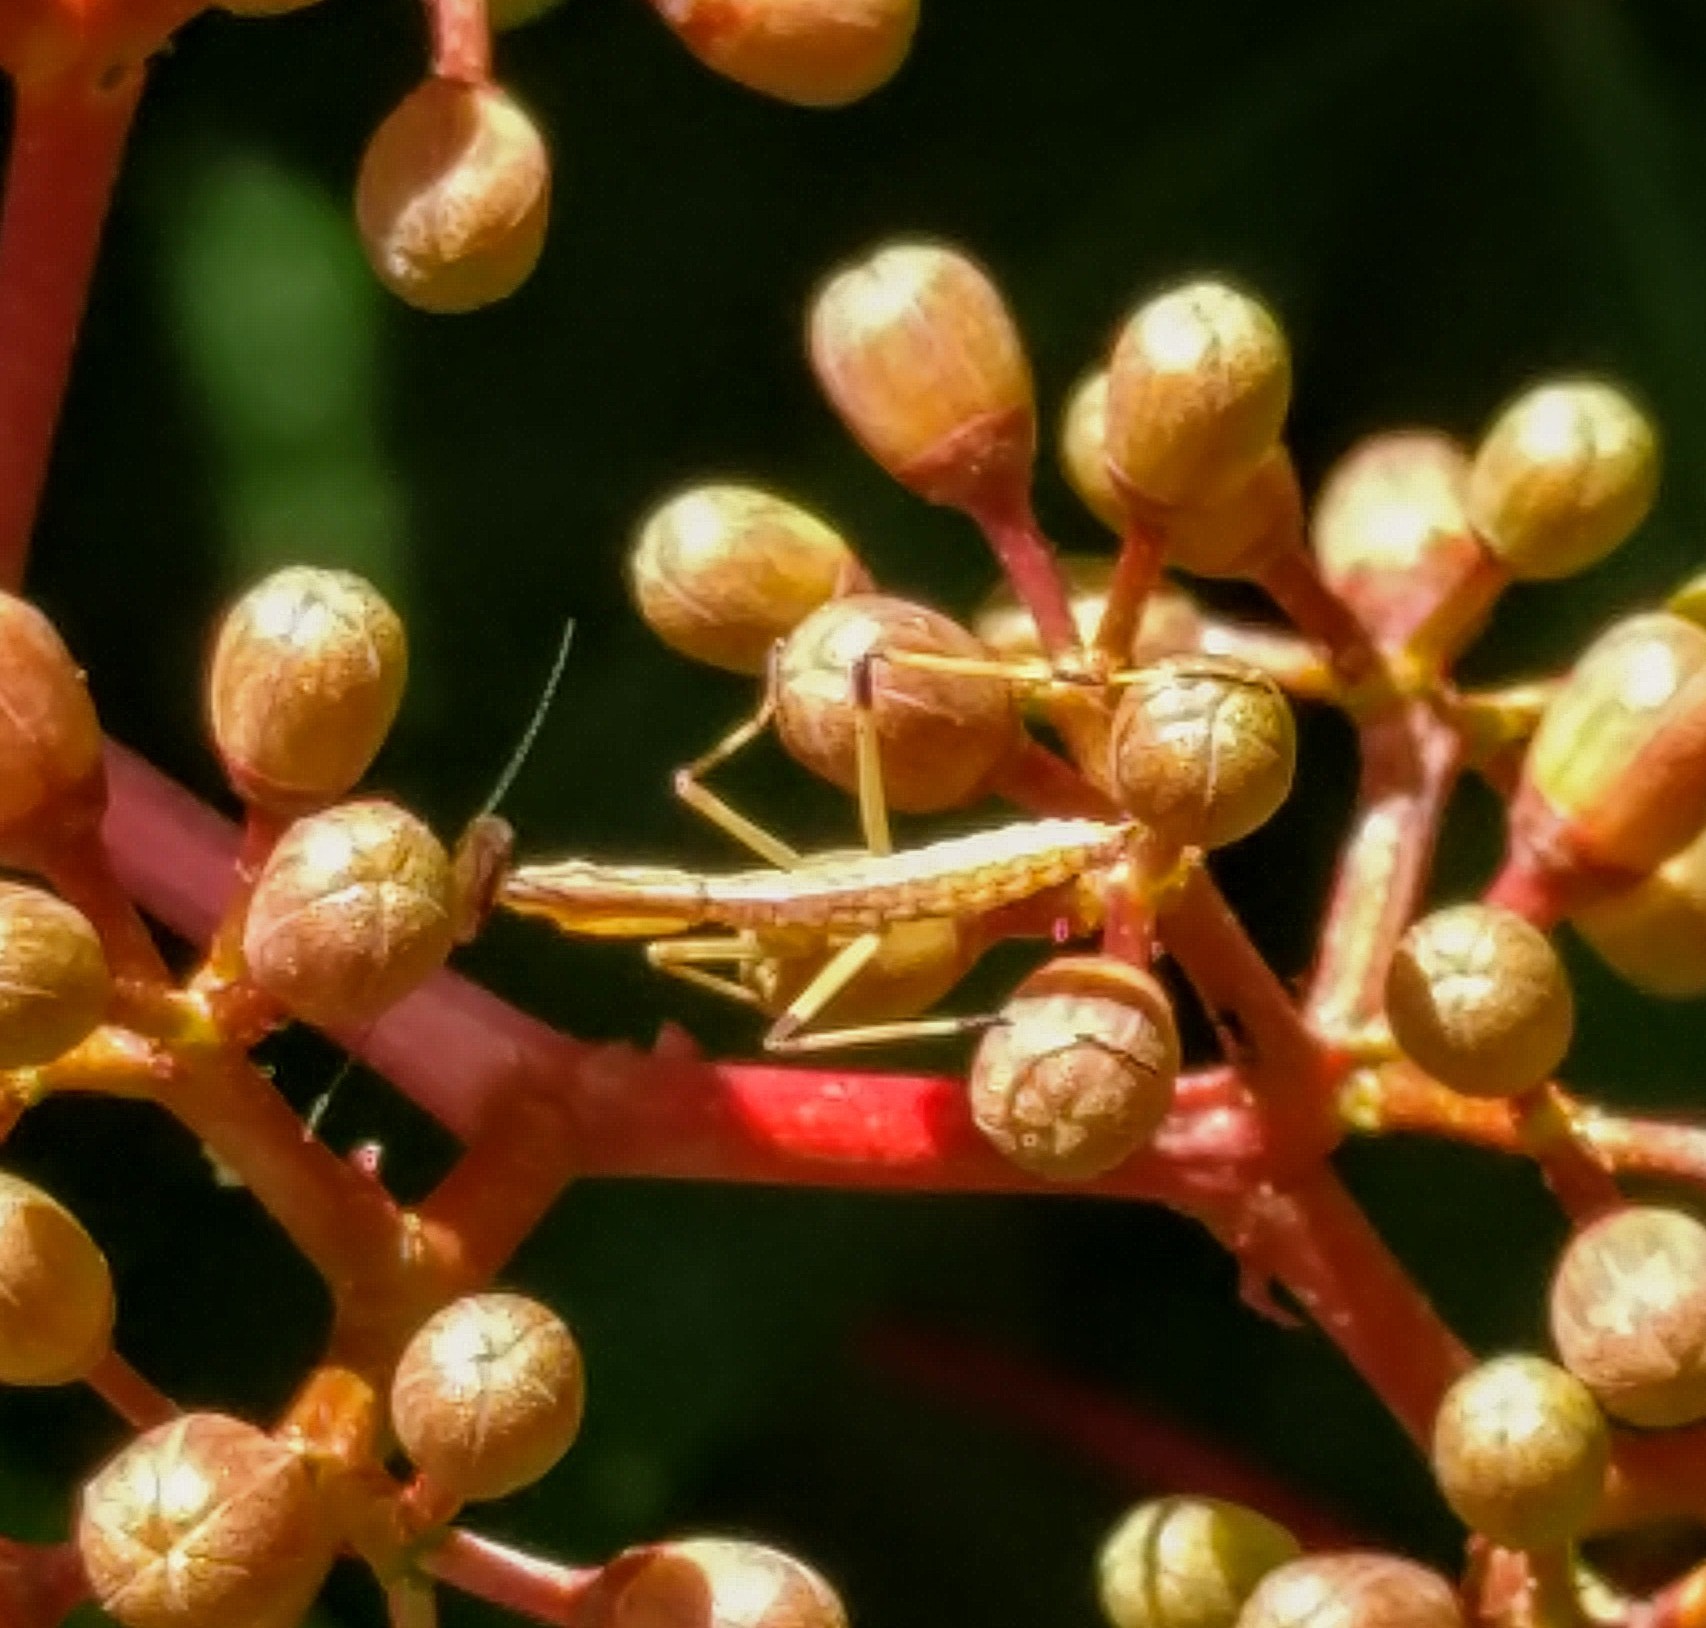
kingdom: Animalia
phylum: Arthropoda
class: Insecta
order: Mantodea
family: Mantidae
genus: Stagmomantis
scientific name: Stagmomantis carolina
